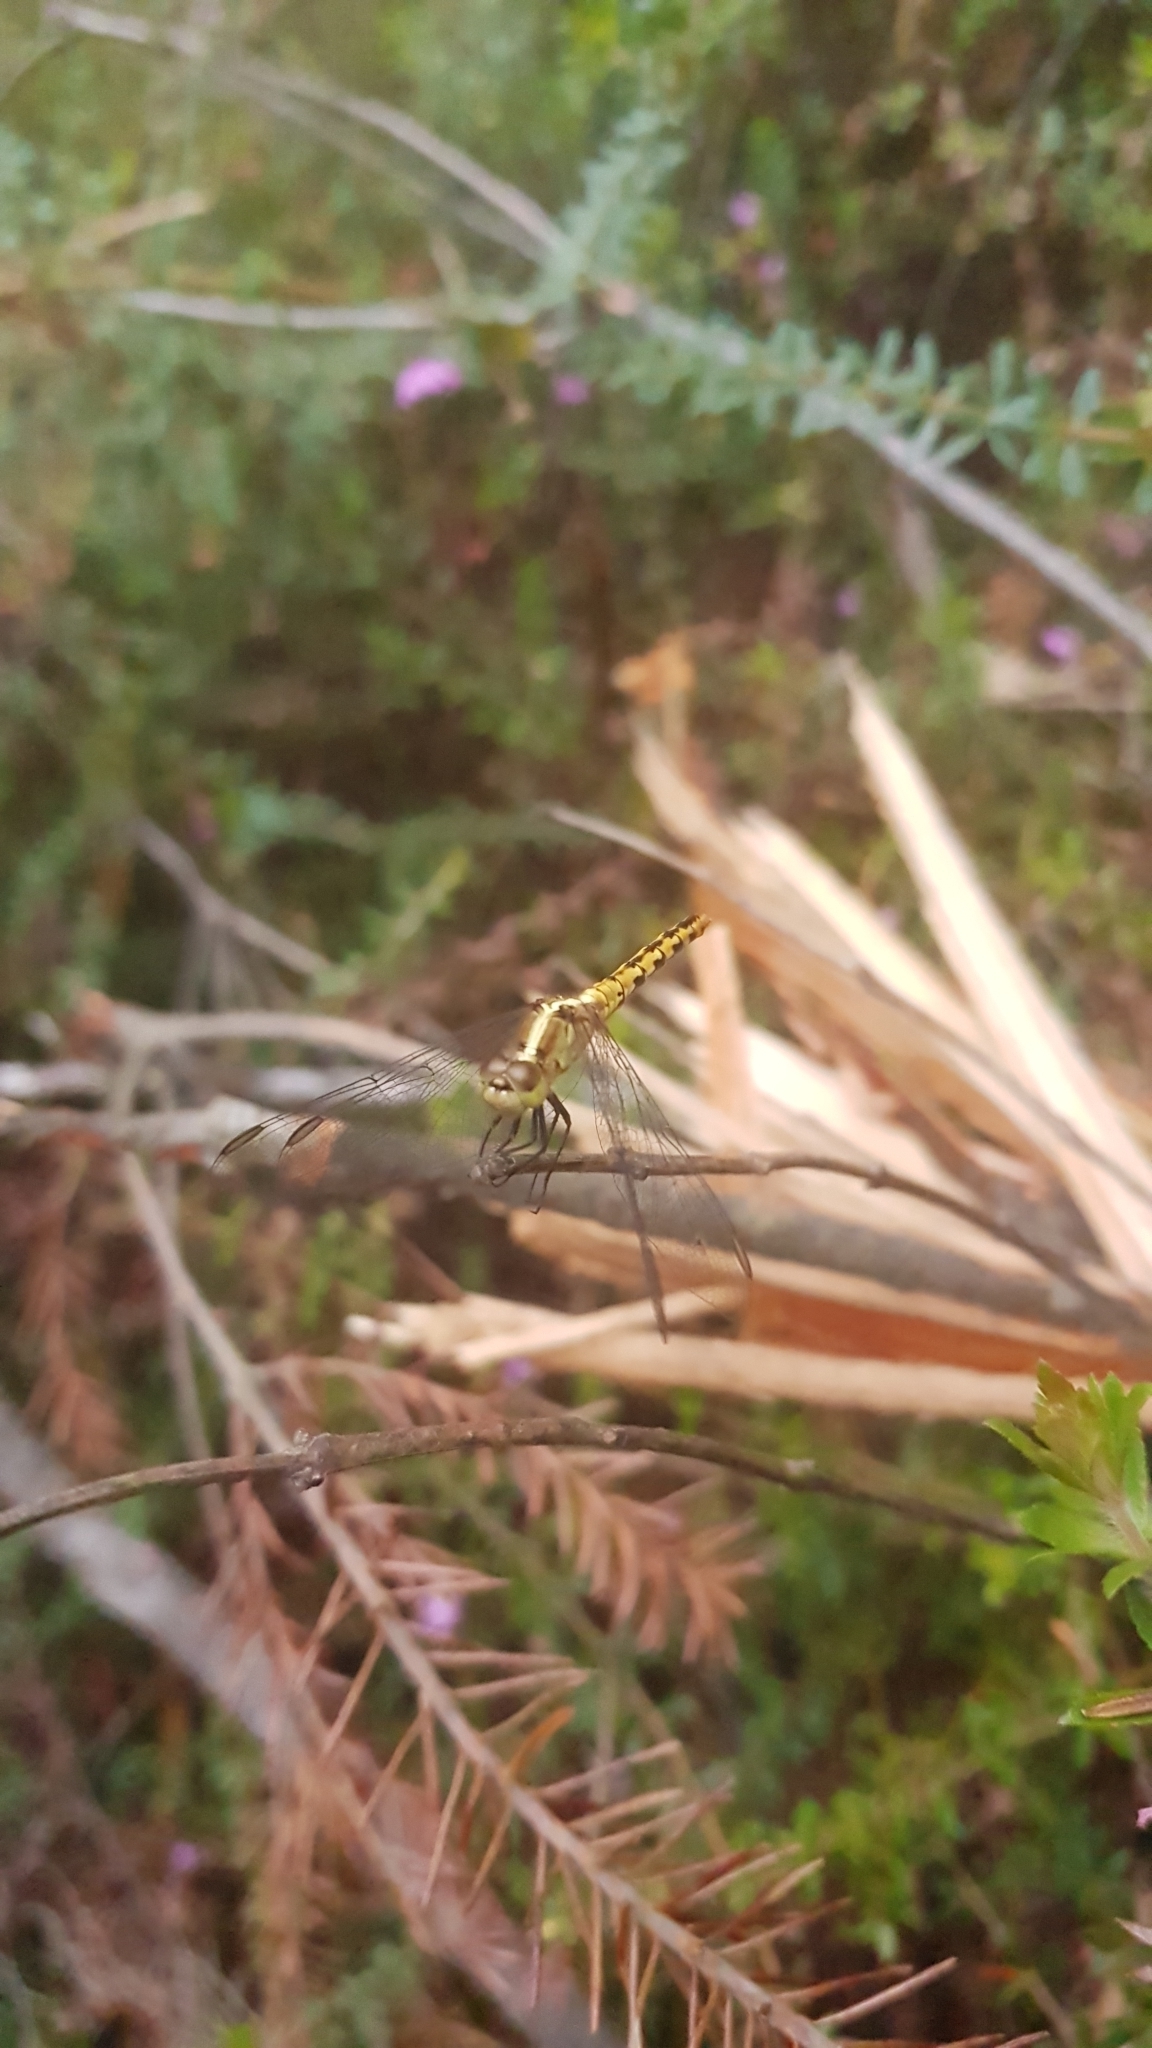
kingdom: Animalia
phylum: Arthropoda
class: Insecta
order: Odonata
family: Libellulidae
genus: Diplacodes
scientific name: Diplacodes melanopsis
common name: Black-faced percher
